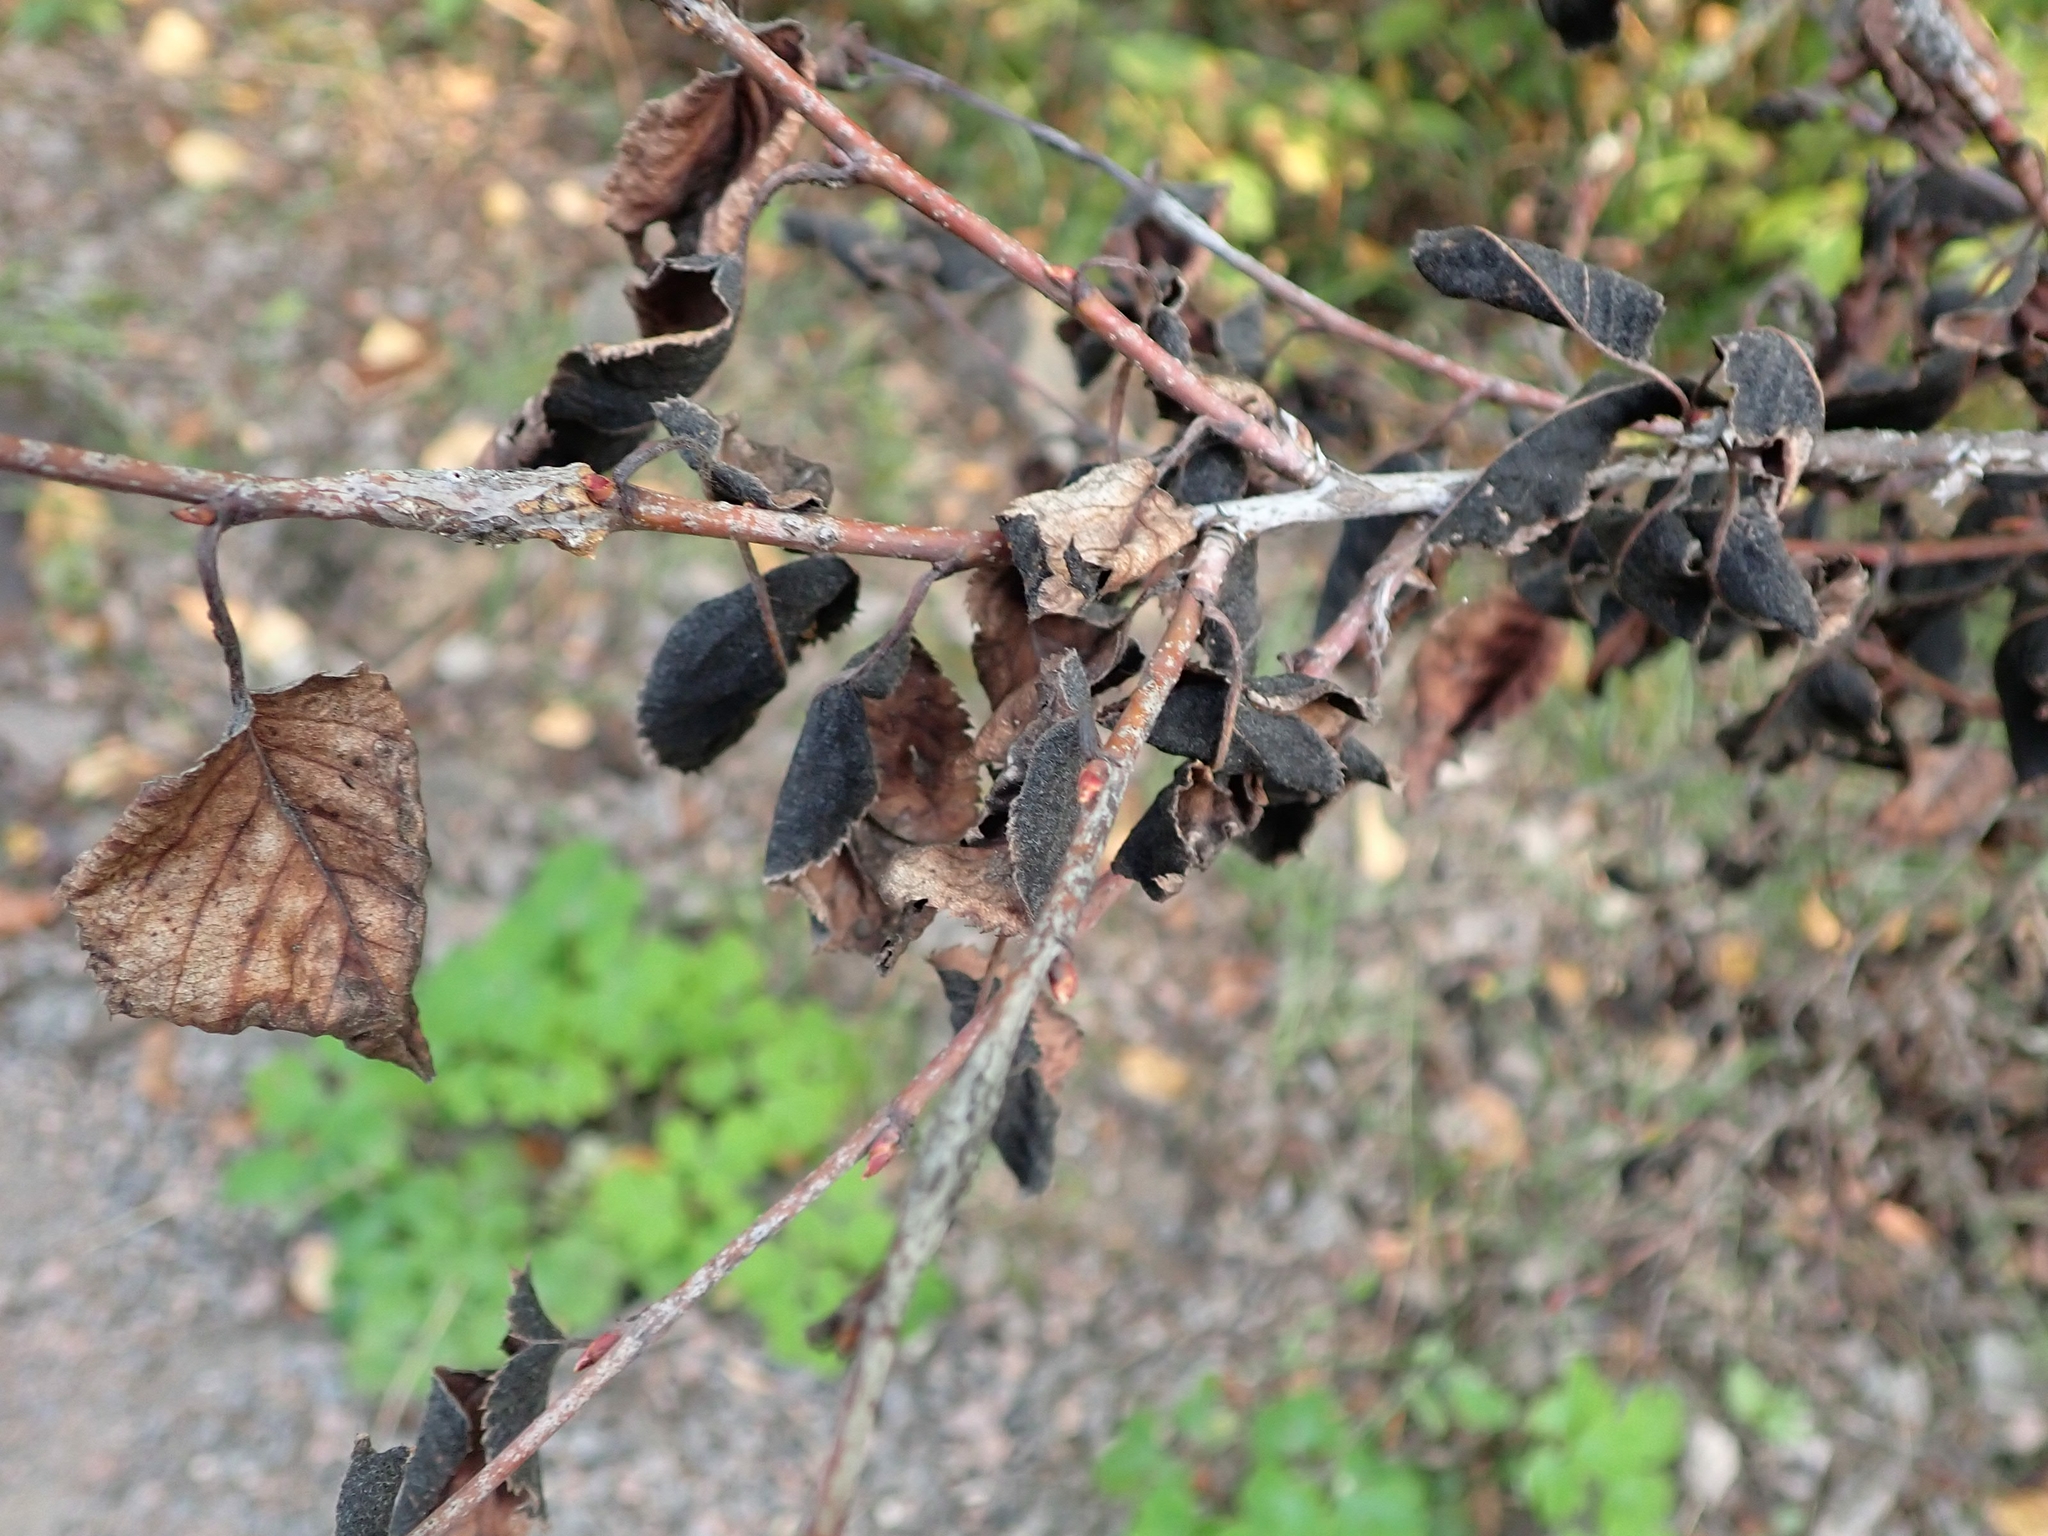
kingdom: Fungi
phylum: Ascomycota
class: Dothideomycetes
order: Venturiales
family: Venturiaceae
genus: Apiosporina
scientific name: Apiosporina collinsii
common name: Black leaf
